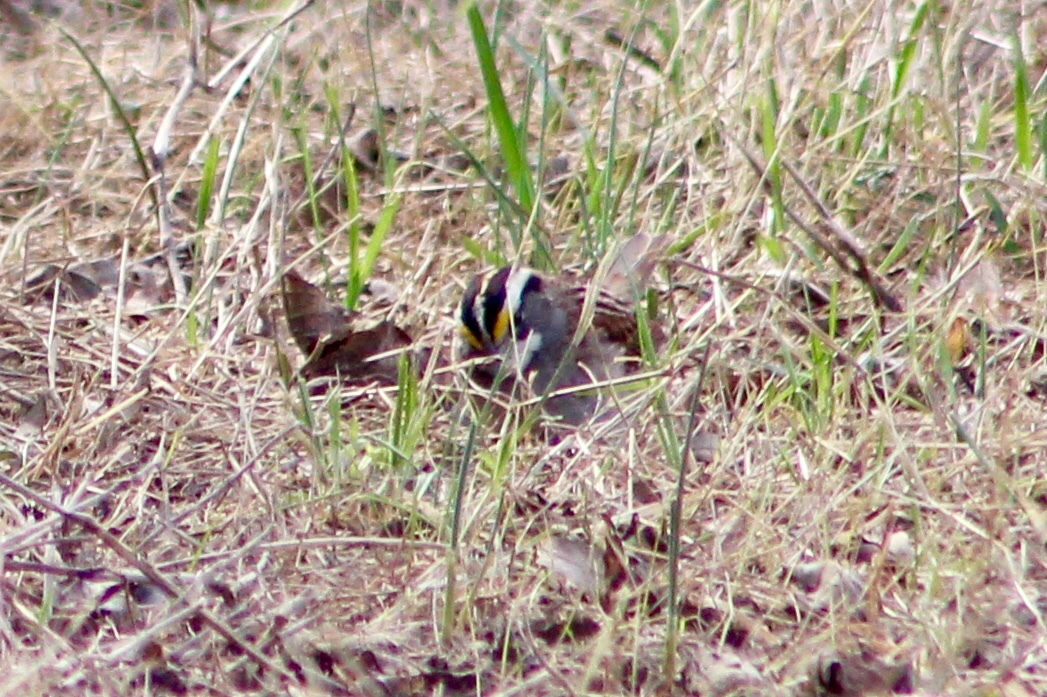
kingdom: Animalia
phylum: Chordata
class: Aves
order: Passeriformes
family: Passerellidae
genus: Zonotrichia
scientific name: Zonotrichia albicollis
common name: White-throated sparrow
